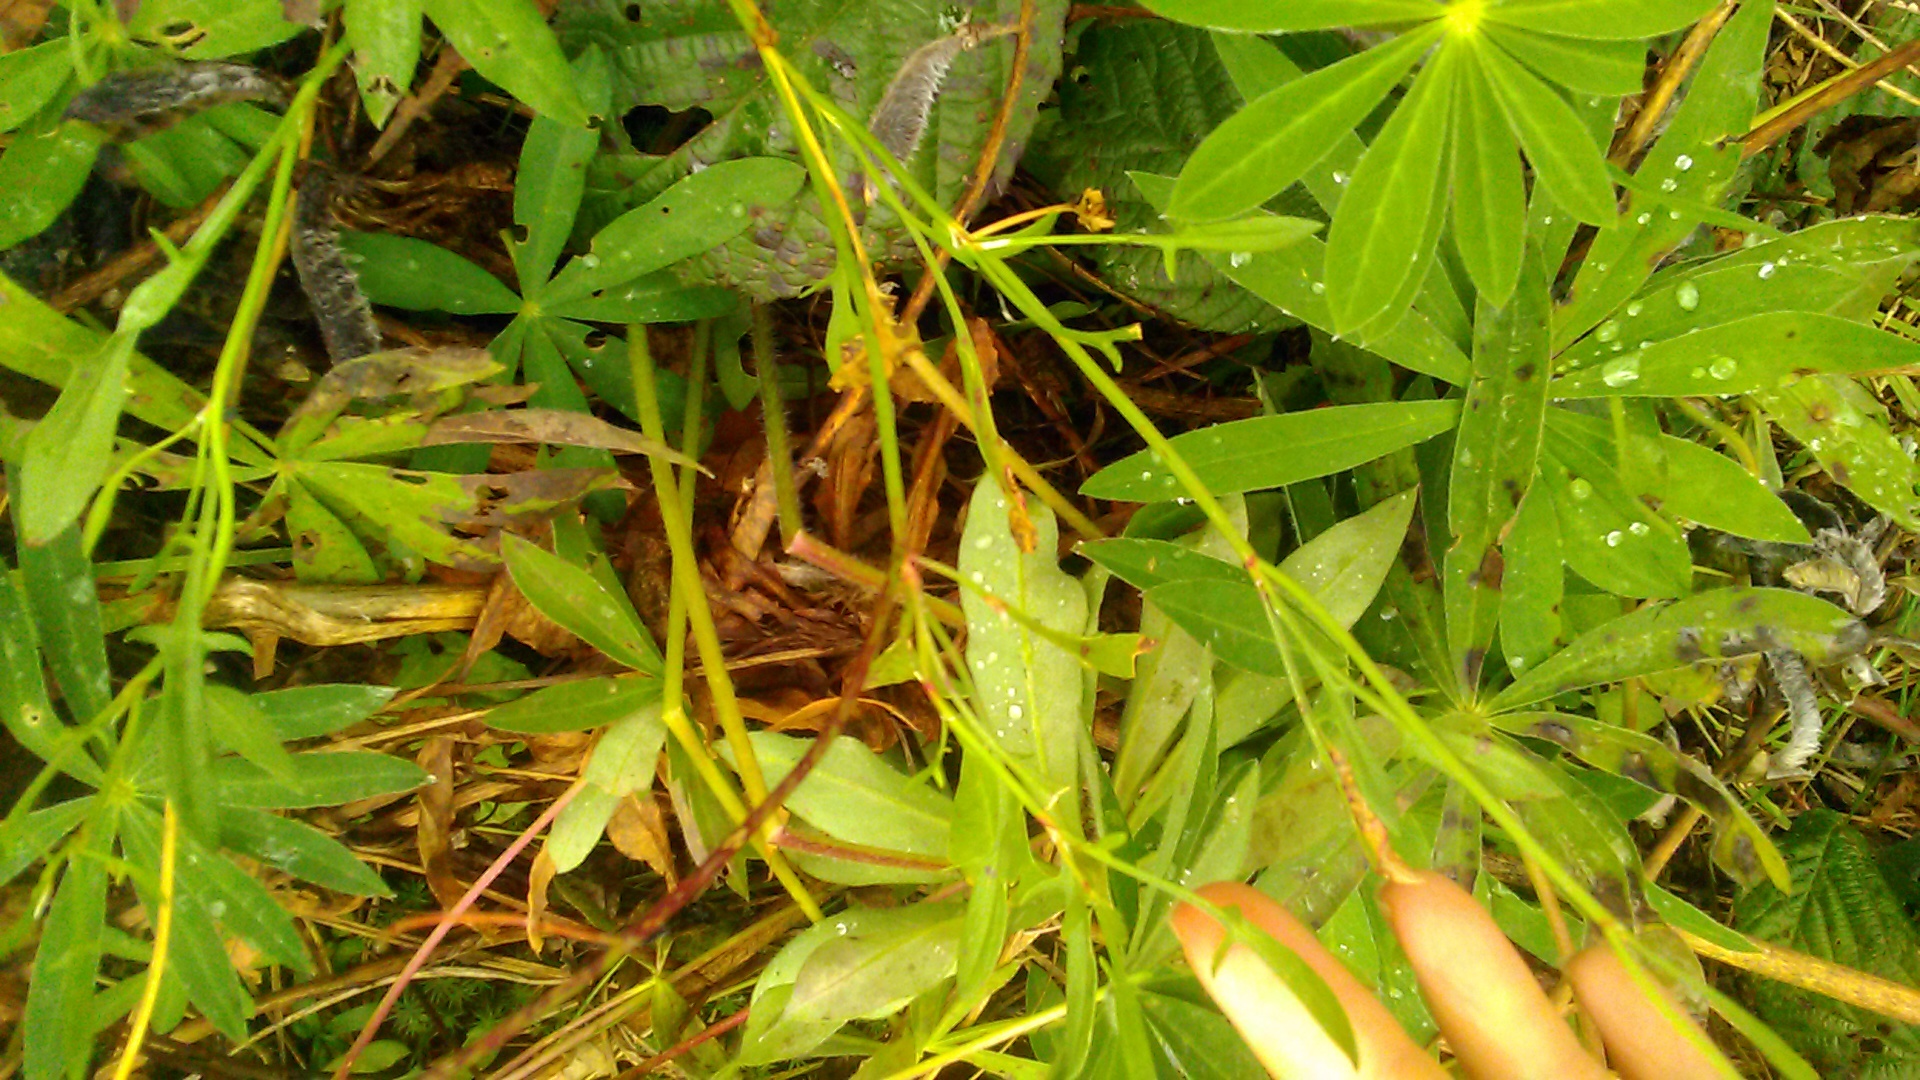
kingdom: Plantae
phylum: Tracheophyta
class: Magnoliopsida
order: Caryophyllales
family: Polygonaceae
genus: Rumex
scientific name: Rumex acetosella
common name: Common sheep sorrel
